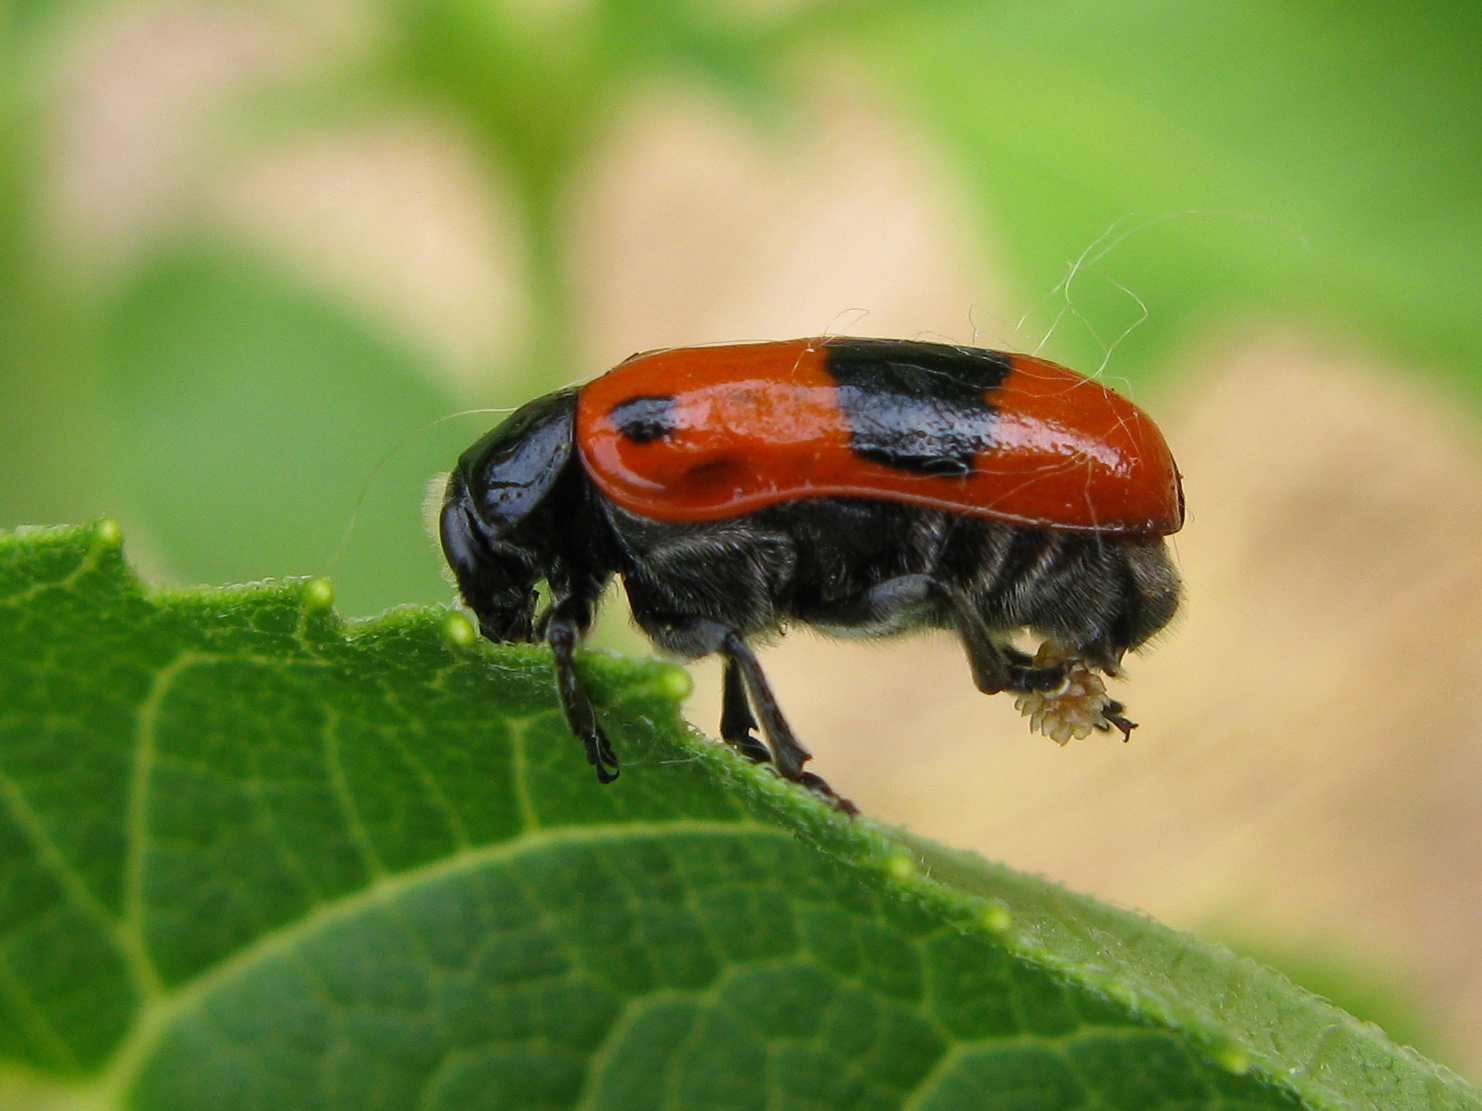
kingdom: Animalia
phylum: Arthropoda
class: Insecta
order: Coleoptera
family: Chrysomelidae
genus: Clytra
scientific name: Clytra laeviuscula
